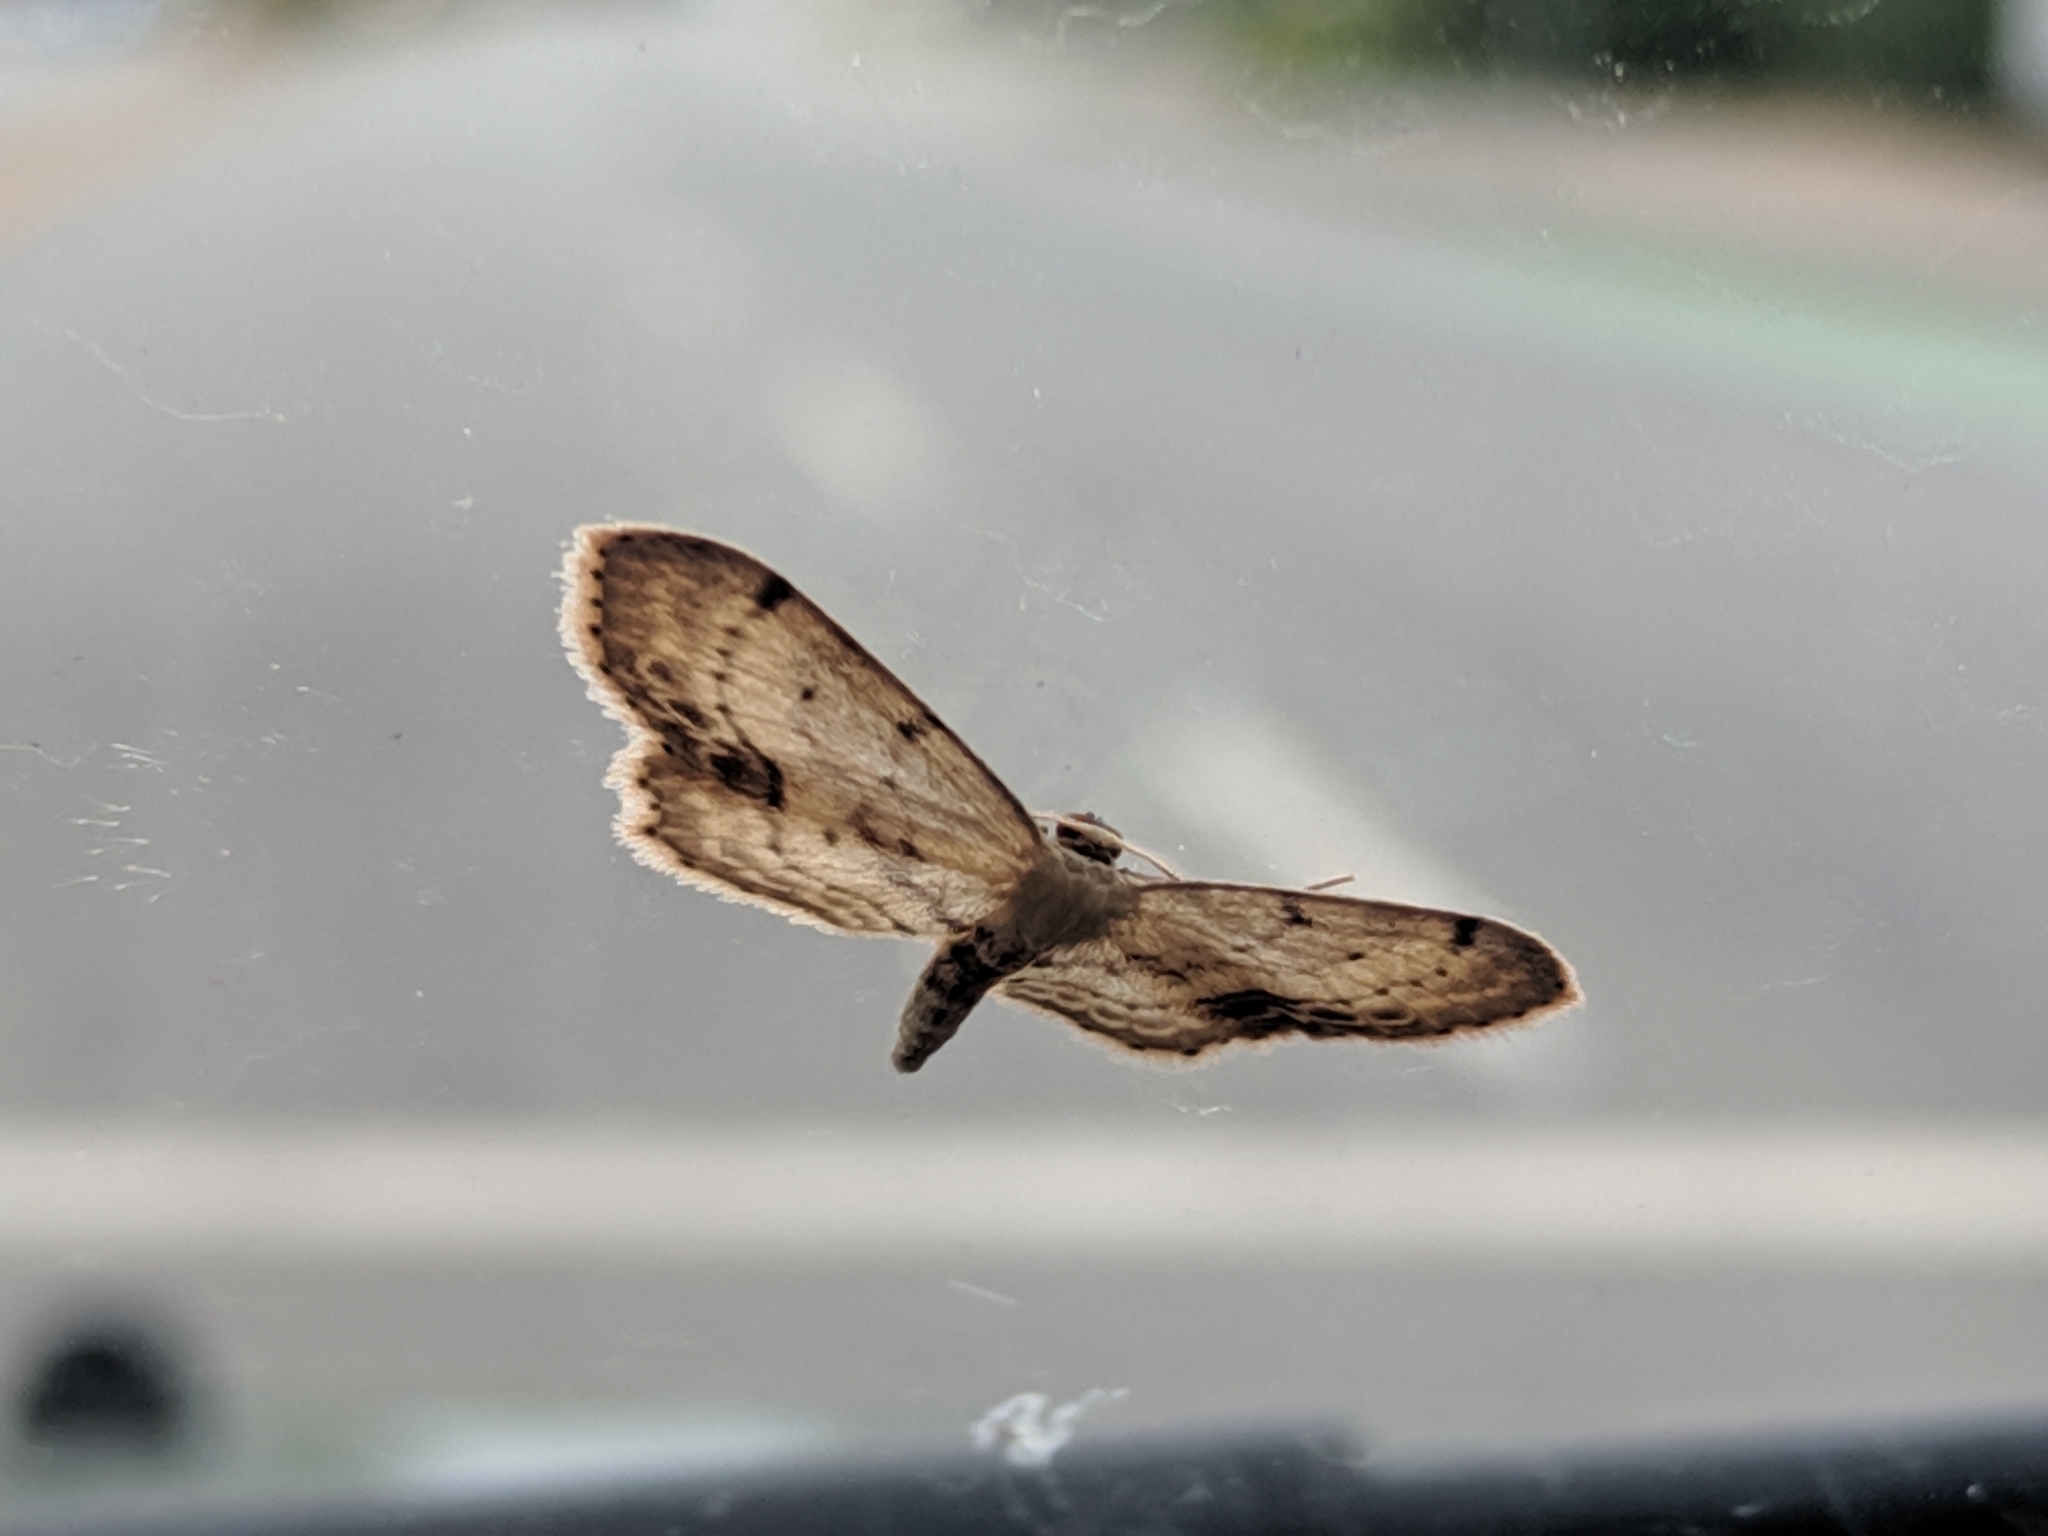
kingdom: Animalia
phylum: Arthropoda
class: Insecta
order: Lepidoptera
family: Geometridae
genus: Idaea
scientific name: Idaea dimidiata
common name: Single-dotted wave
